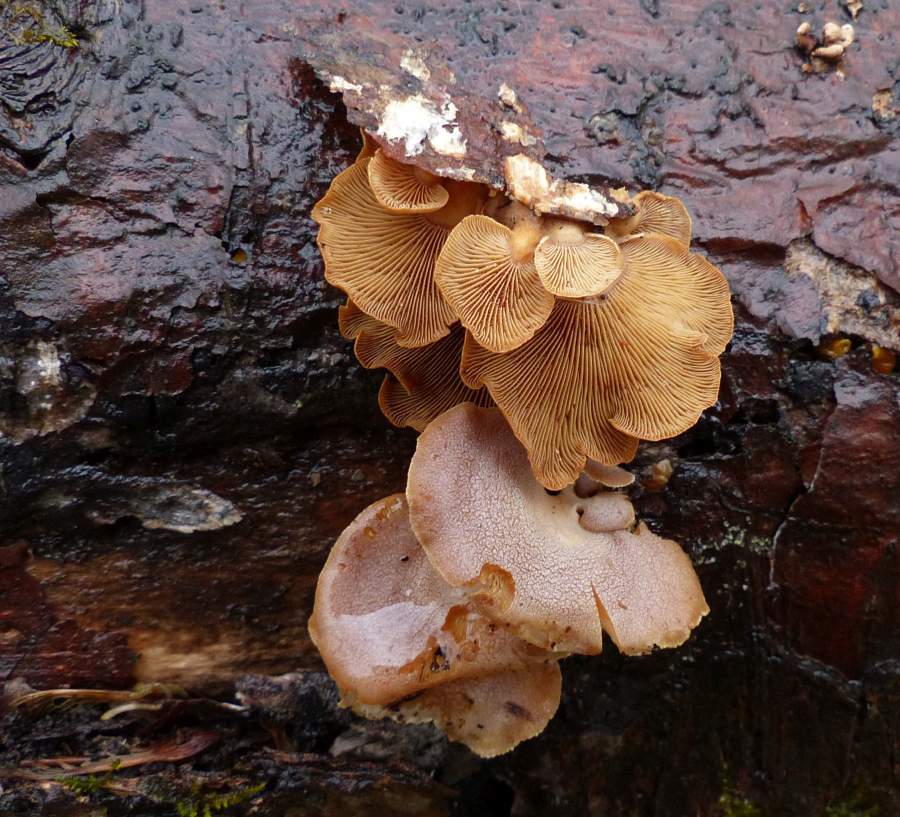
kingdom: Fungi
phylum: Basidiomycota
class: Agaricomycetes
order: Agaricales
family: Mycenaceae
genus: Panellus
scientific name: Panellus stipticus
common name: Bitter oysterling
